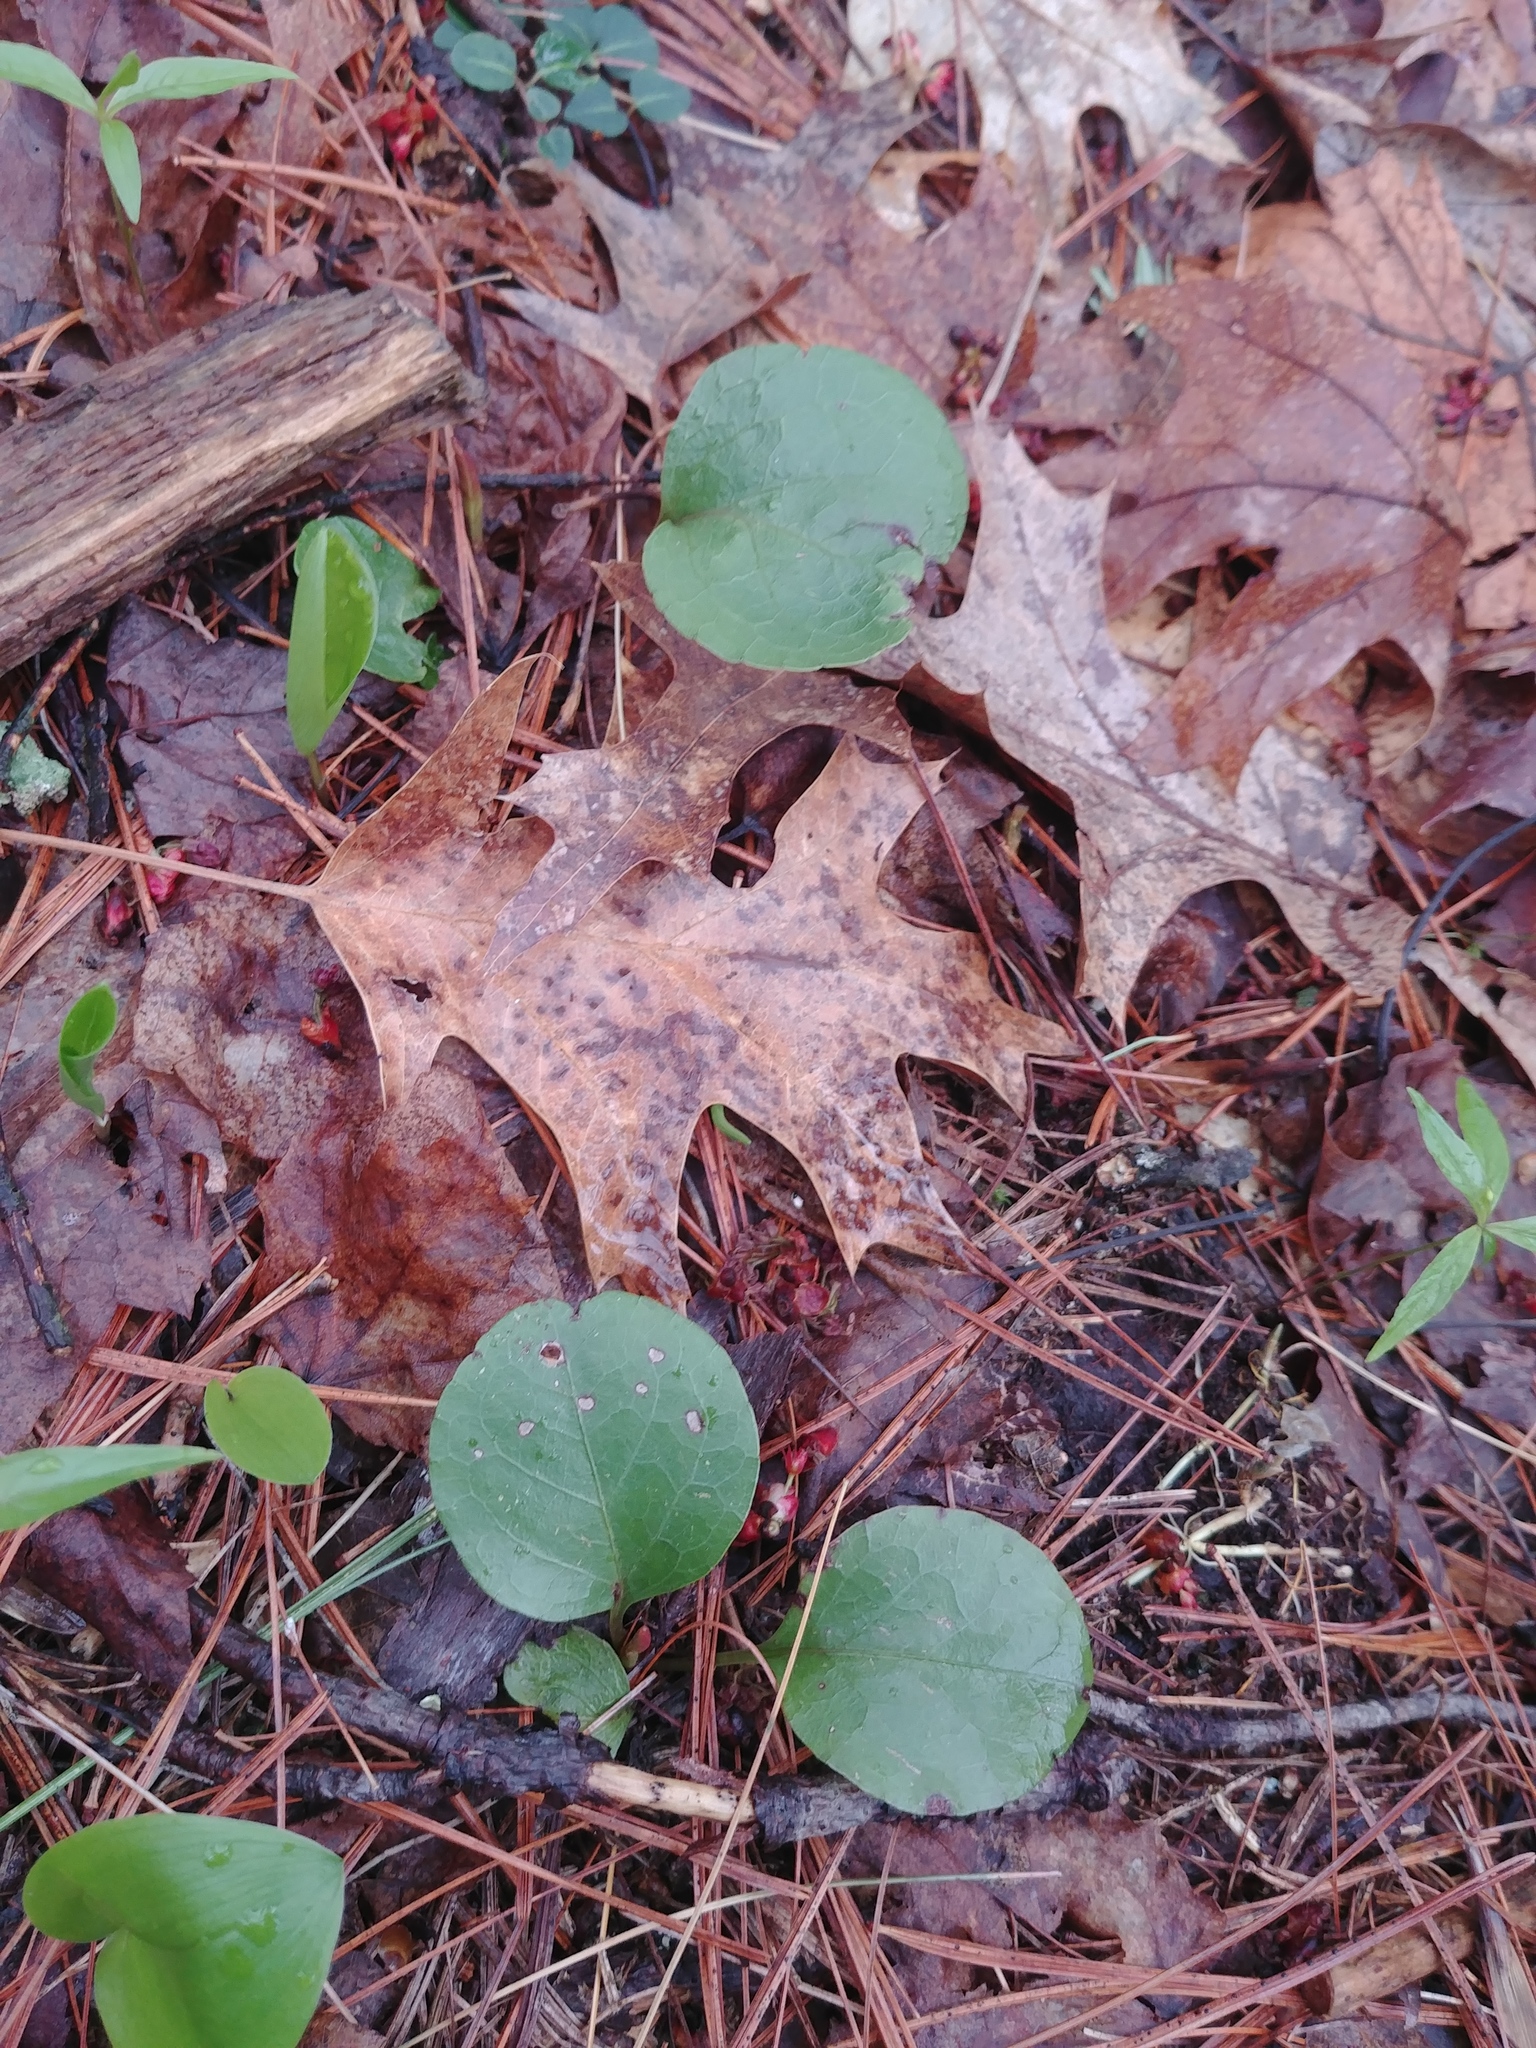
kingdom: Plantae
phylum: Tracheophyta
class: Magnoliopsida
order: Ericales
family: Ericaceae
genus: Pyrola
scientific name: Pyrola americana
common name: American wintergreen
